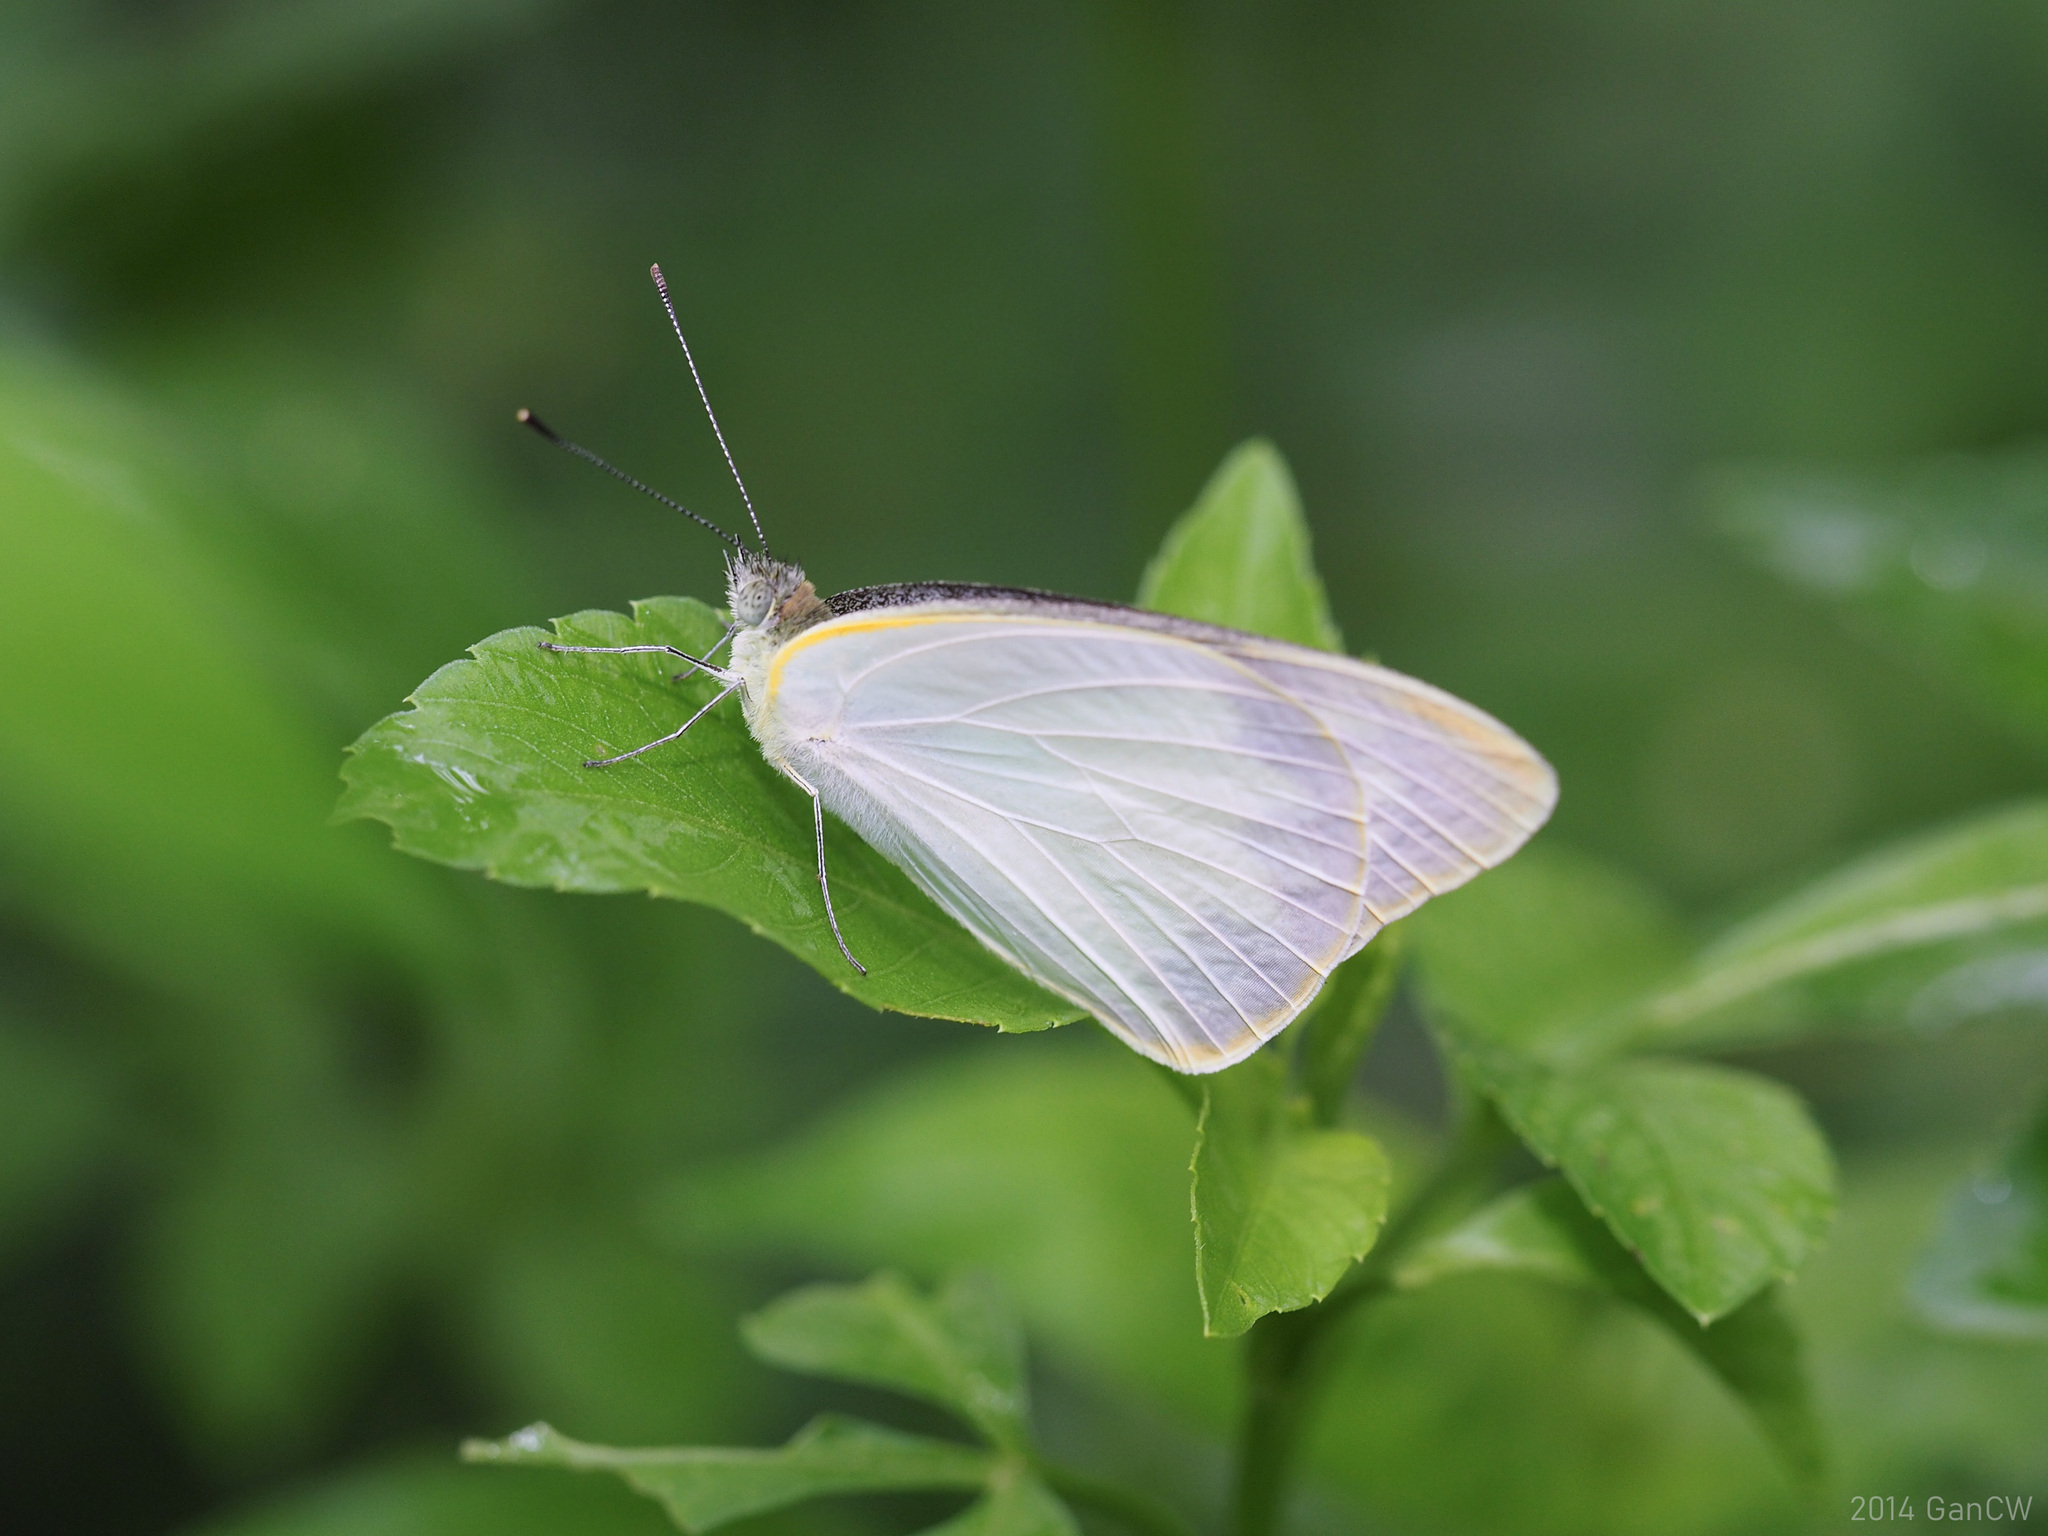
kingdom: Animalia
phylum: Arthropoda
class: Insecta
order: Lepidoptera
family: Pieridae
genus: Saletara
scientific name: Saletara panda
